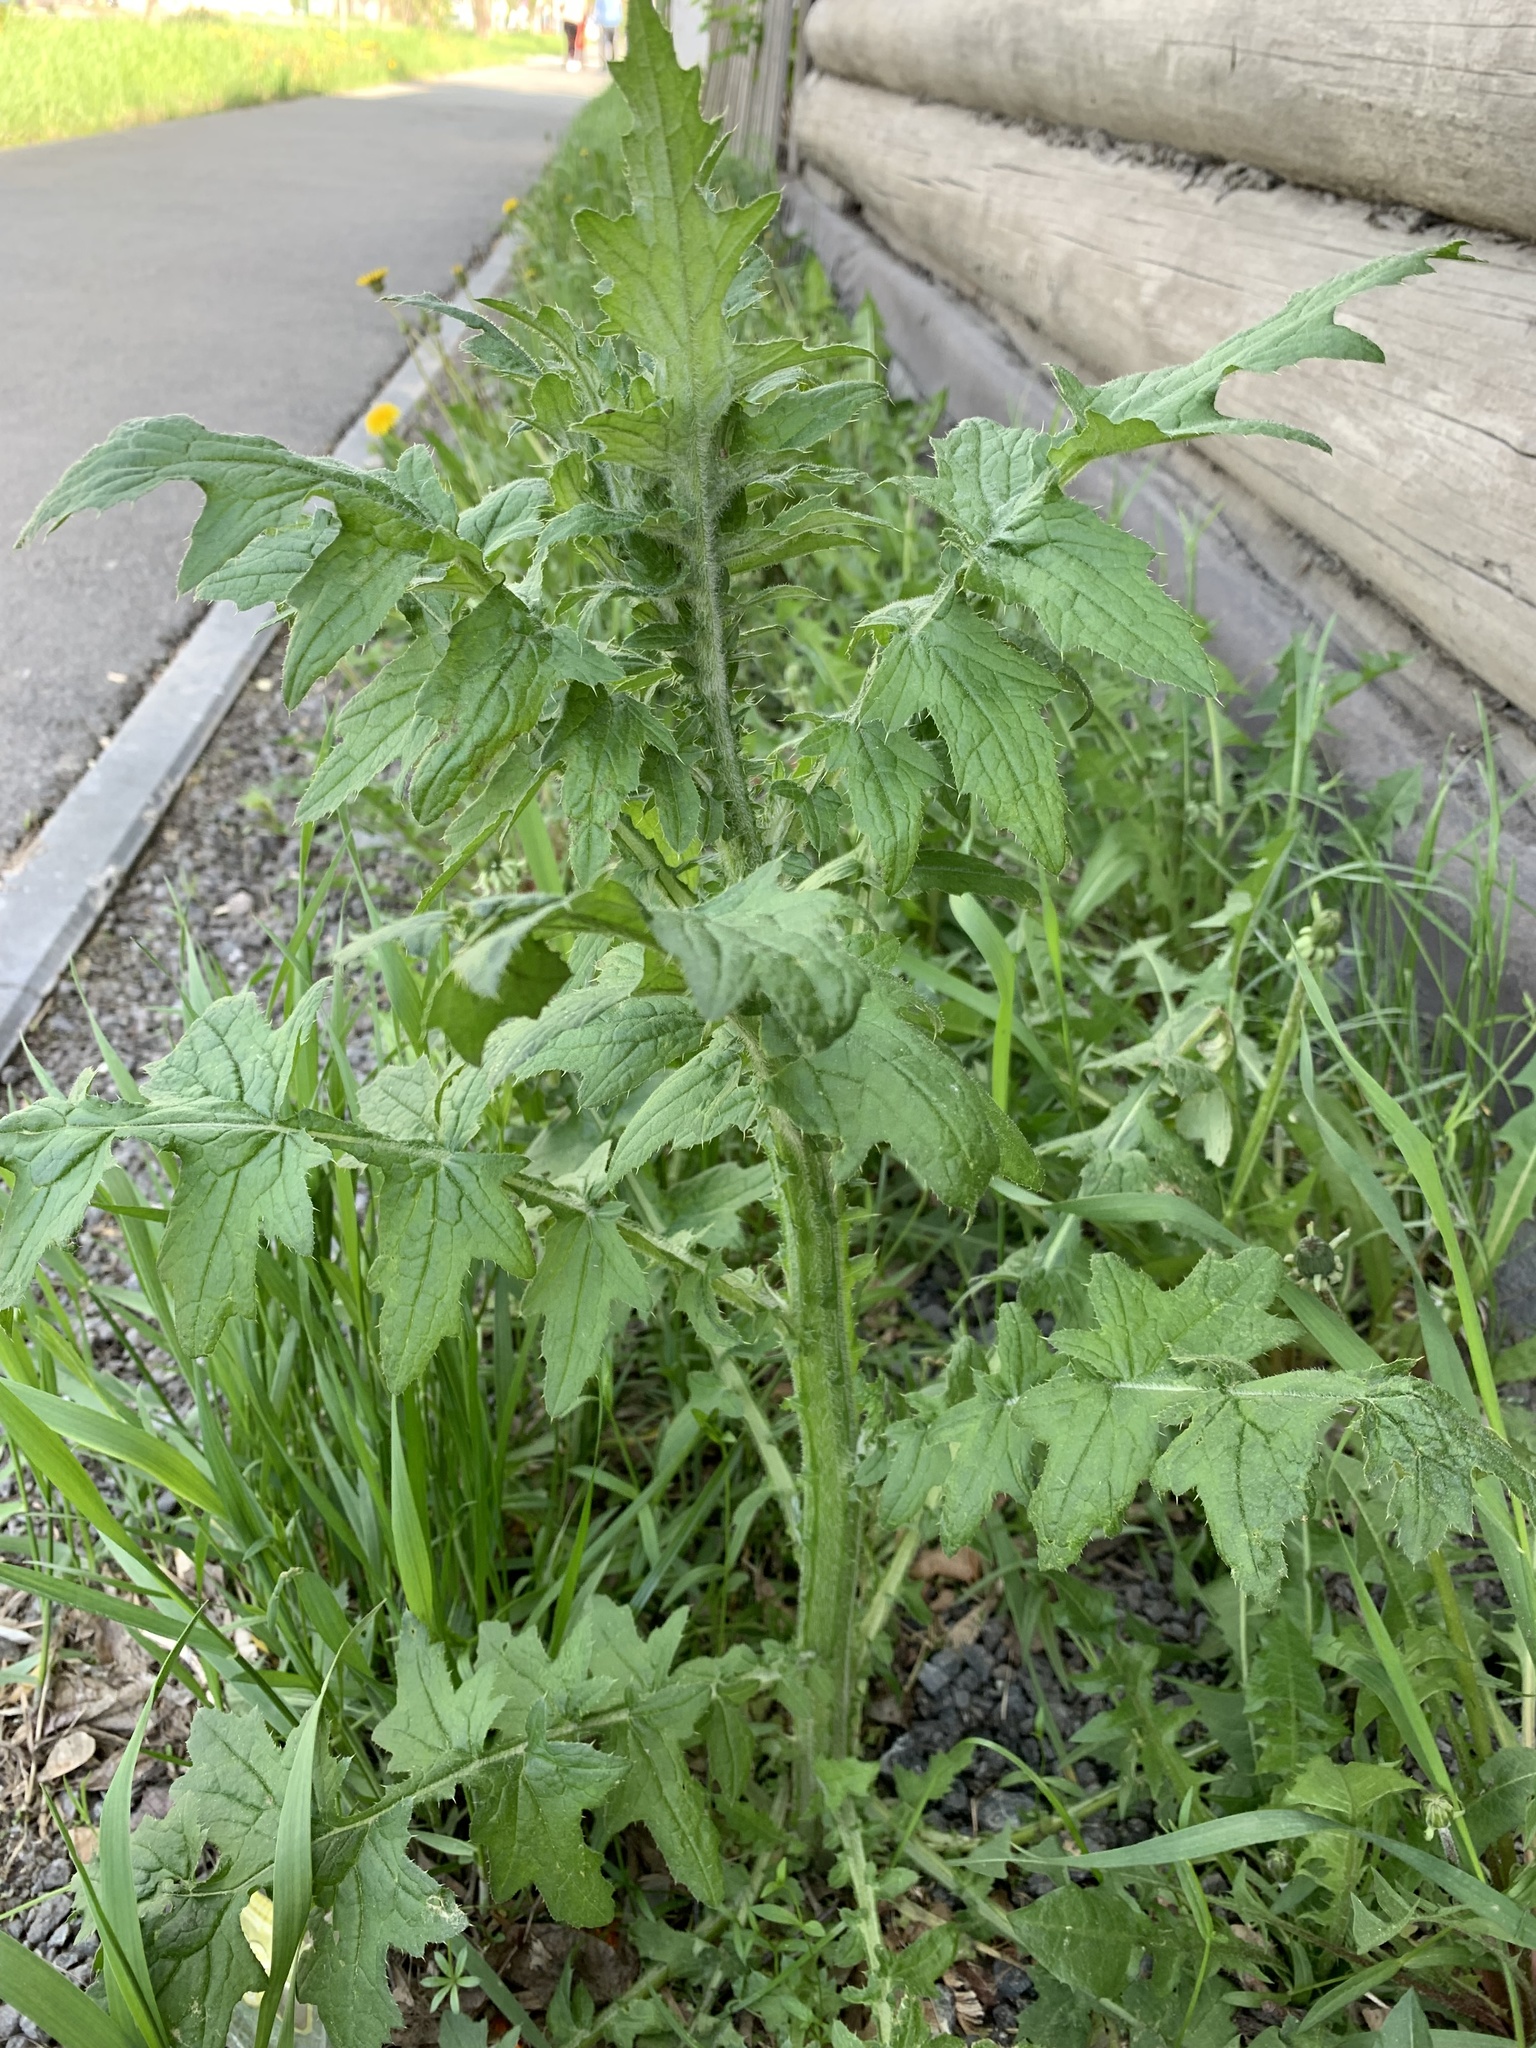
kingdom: Plantae
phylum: Tracheophyta
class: Magnoliopsida
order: Asterales
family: Asteraceae
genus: Carduus
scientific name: Carduus crispus
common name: Welted thistle
